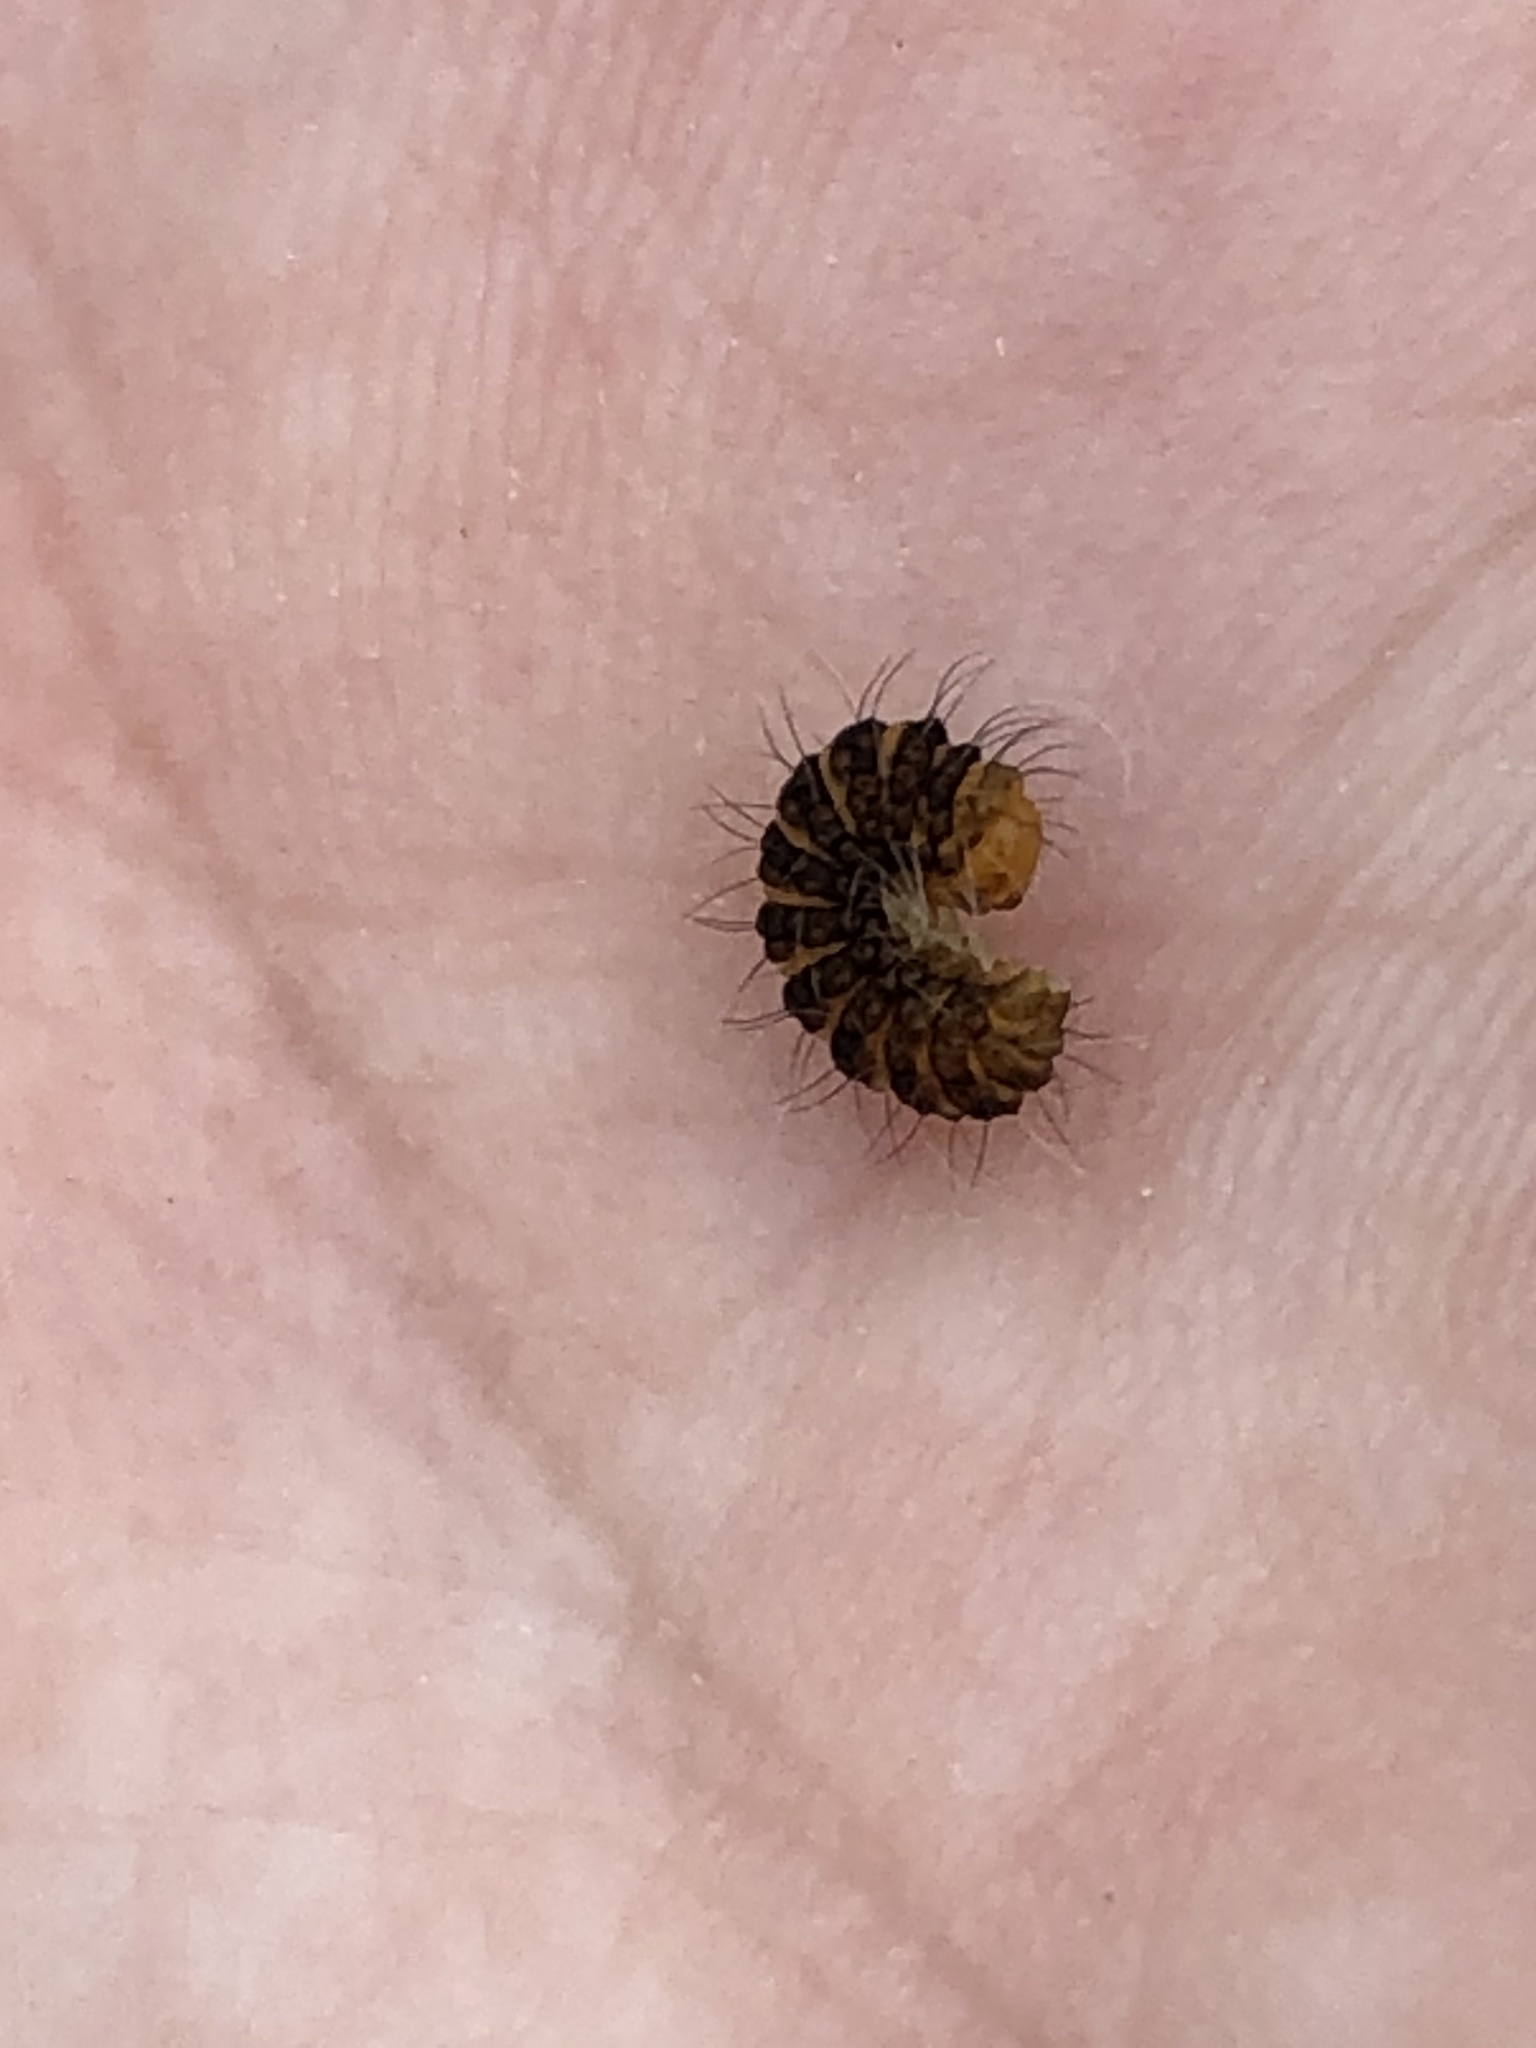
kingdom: Animalia
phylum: Arthropoda
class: Insecta
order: Lepidoptera
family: Erebidae
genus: Tyria
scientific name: Tyria jacobaeae
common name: Cinnabar
